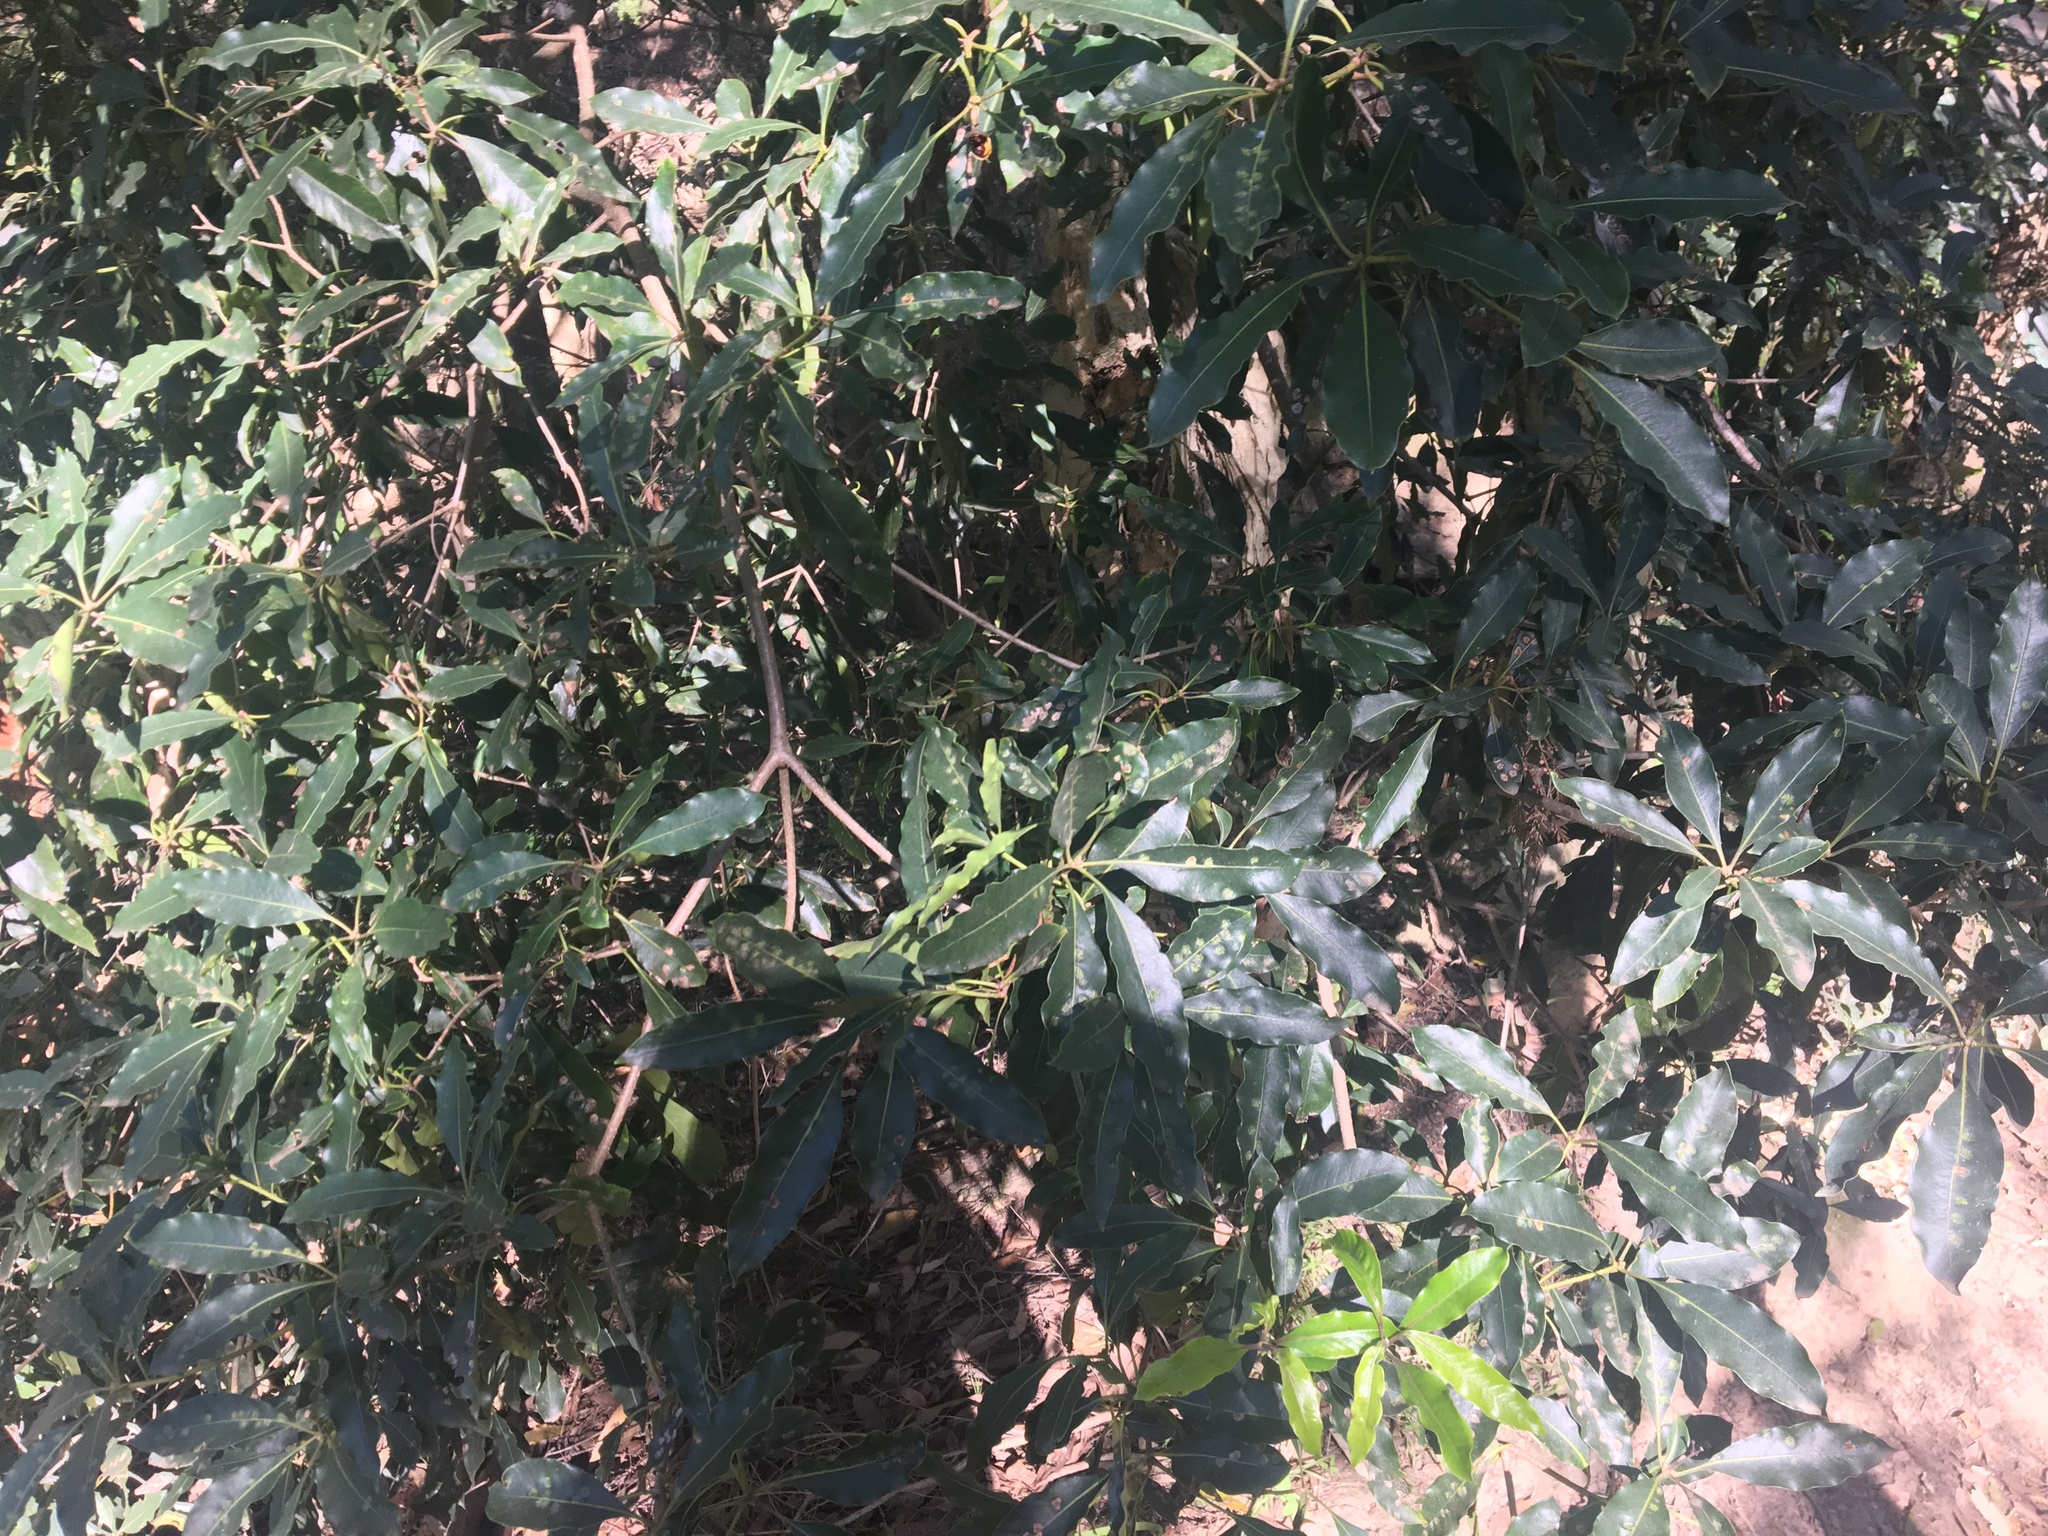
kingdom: Animalia
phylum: Arthropoda
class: Insecta
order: Diptera
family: Agromyzidae
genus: Phytoliriomyza
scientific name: Phytoliriomyza pittosporophylli
